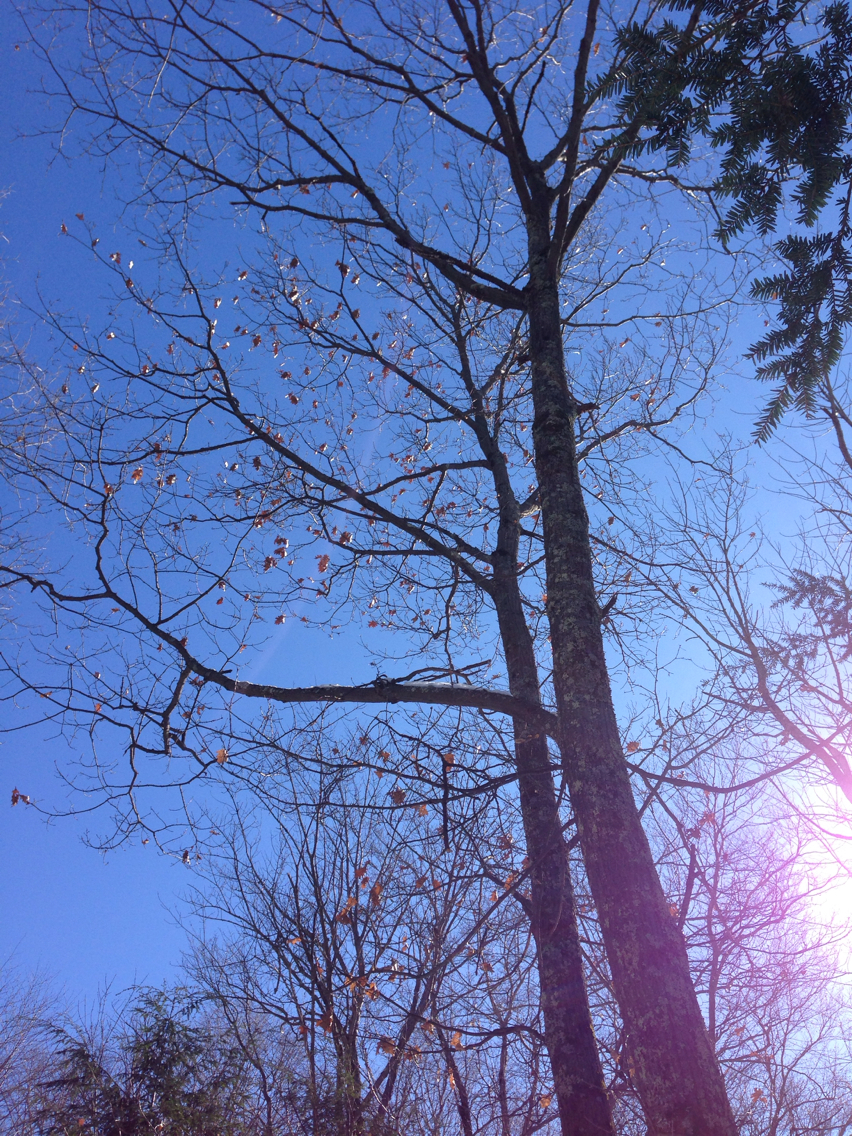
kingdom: Plantae
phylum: Tracheophyta
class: Magnoliopsida
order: Fagales
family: Fagaceae
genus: Quercus
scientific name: Quercus rubra
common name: Red oak
